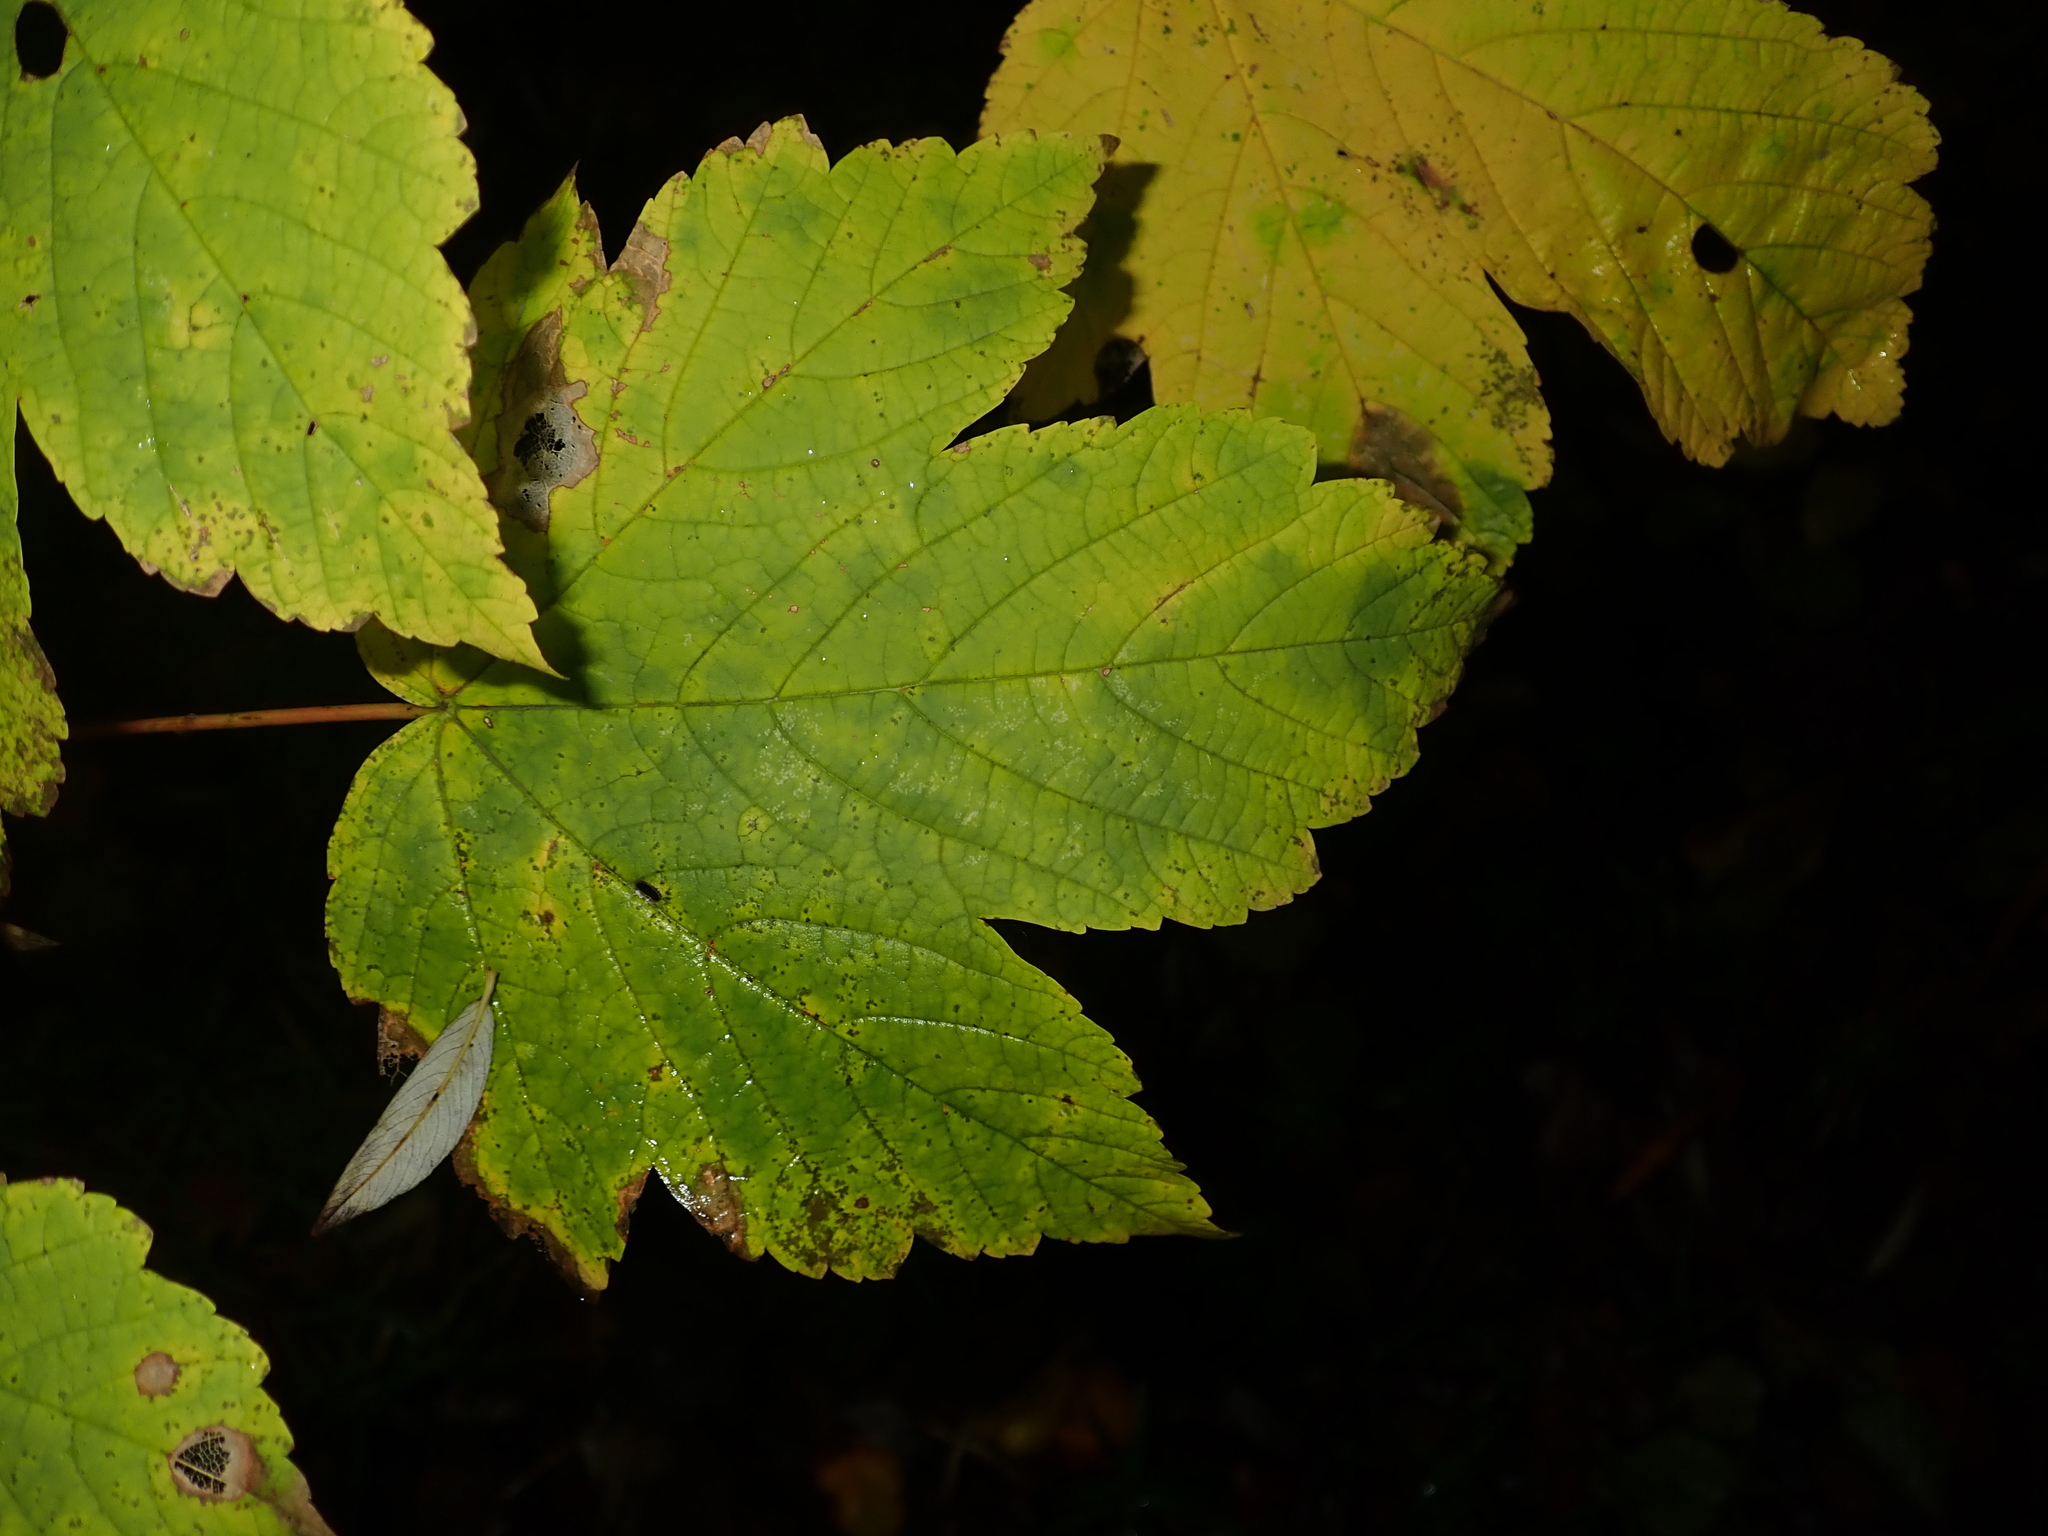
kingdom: Plantae
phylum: Tracheophyta
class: Magnoliopsida
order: Sapindales
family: Sapindaceae
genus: Acer
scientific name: Acer pseudoplatanus
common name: Sycamore
